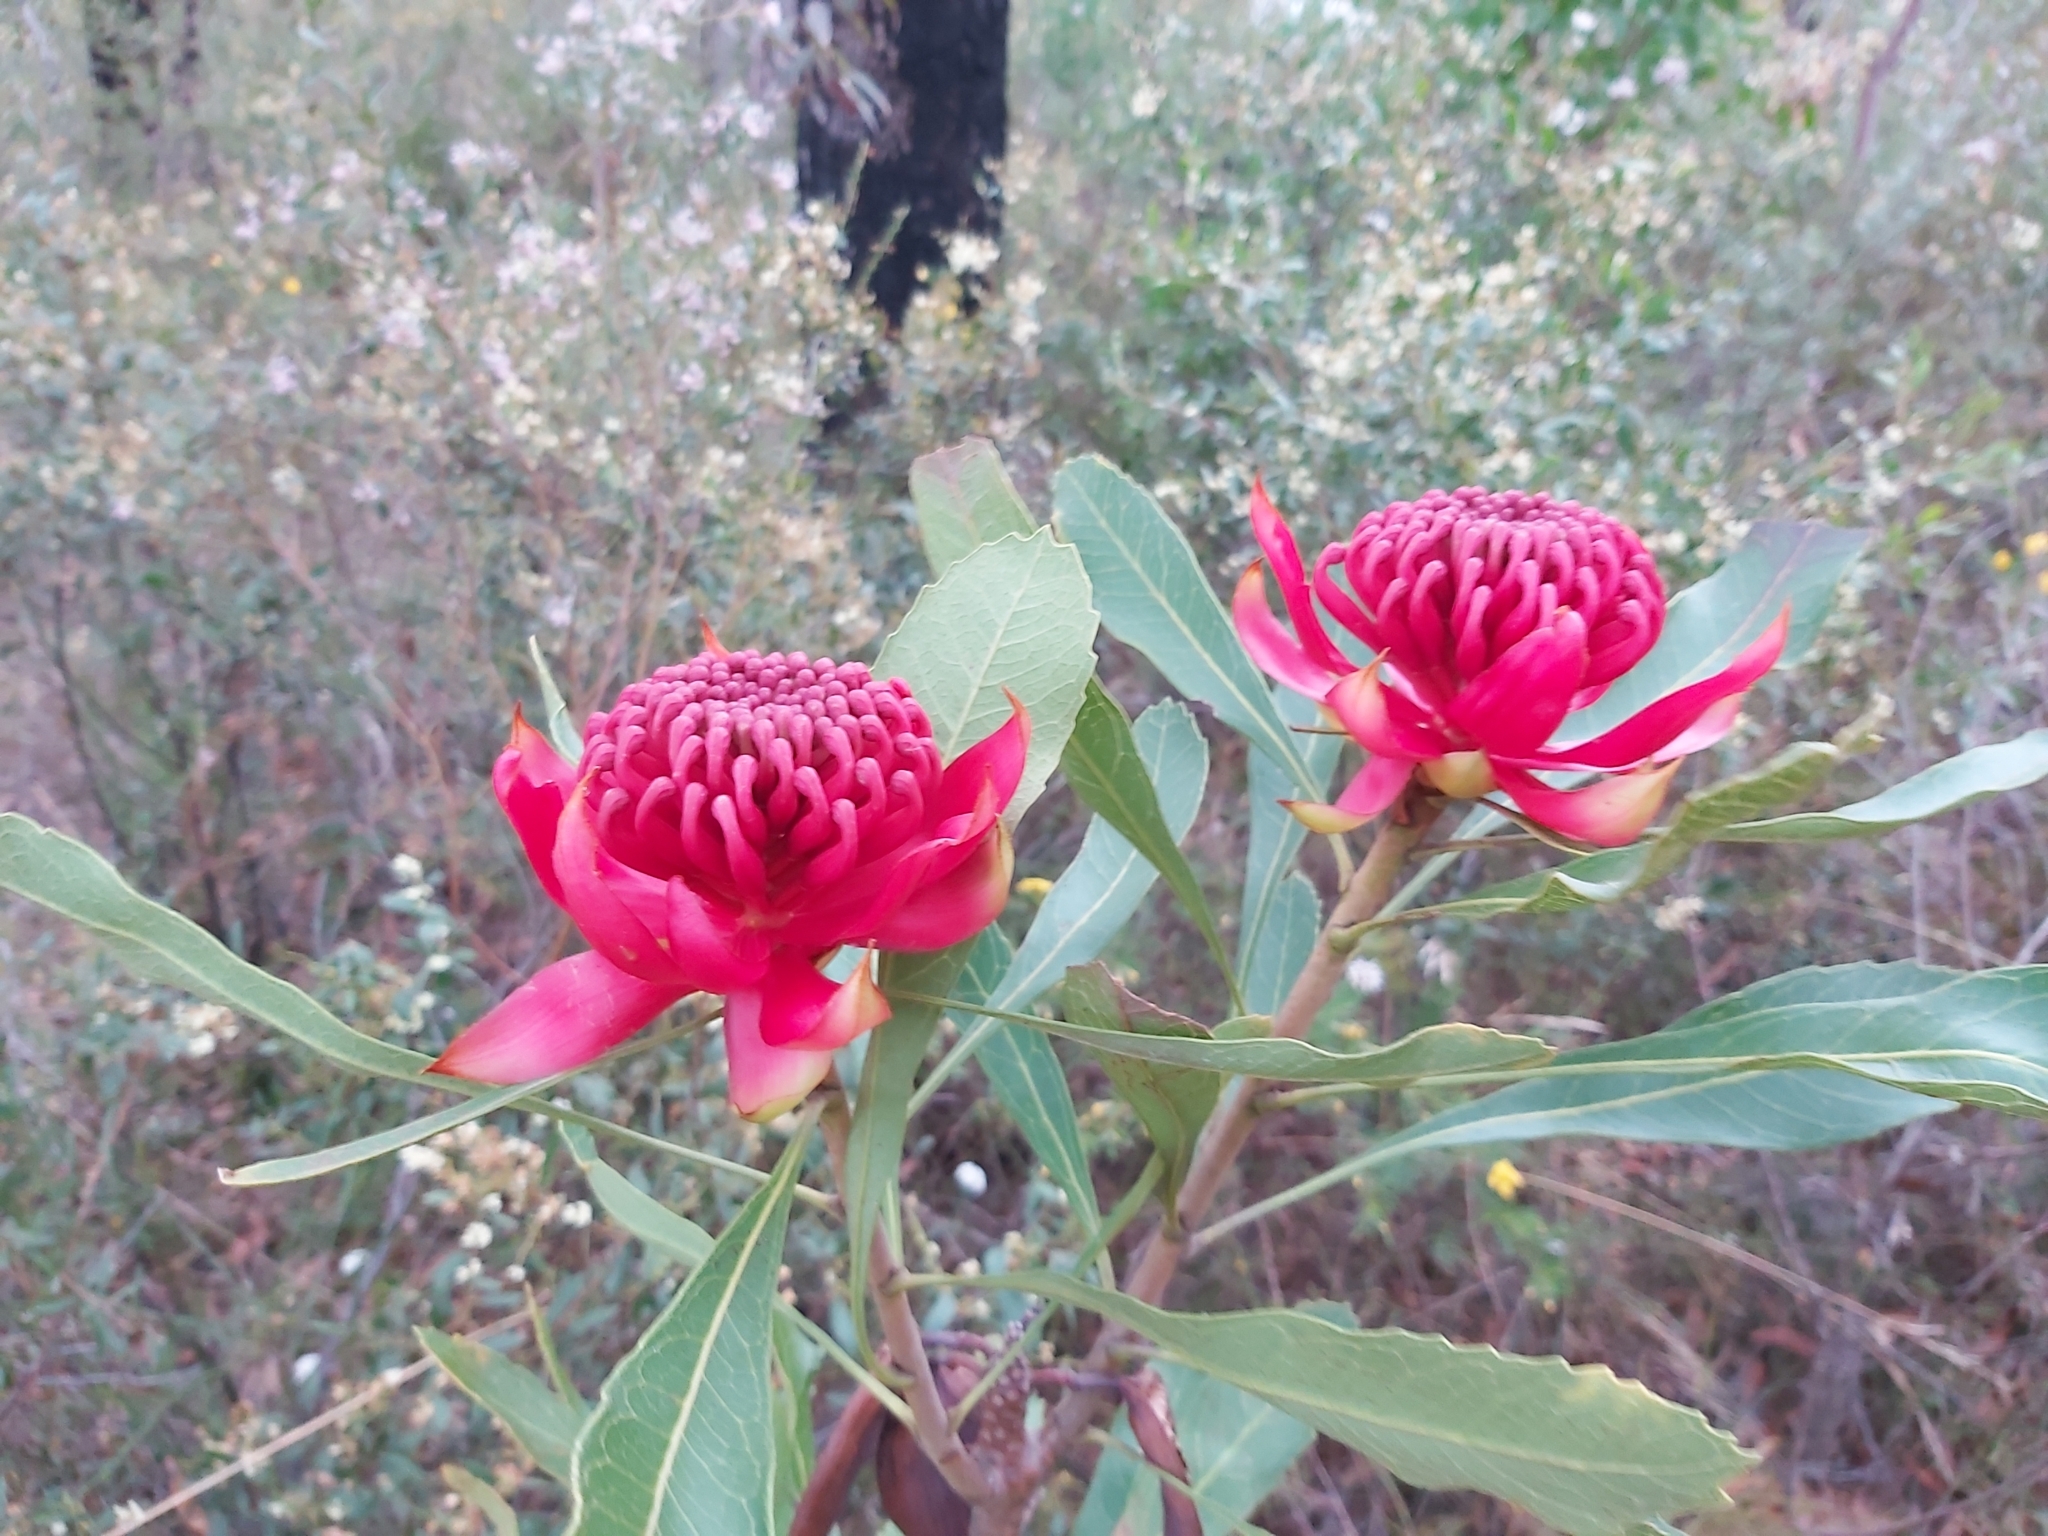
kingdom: Plantae
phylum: Tracheophyta
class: Magnoliopsida
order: Proteales
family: Proteaceae
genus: Telopea
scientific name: Telopea speciosissima
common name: New south wales waratah
